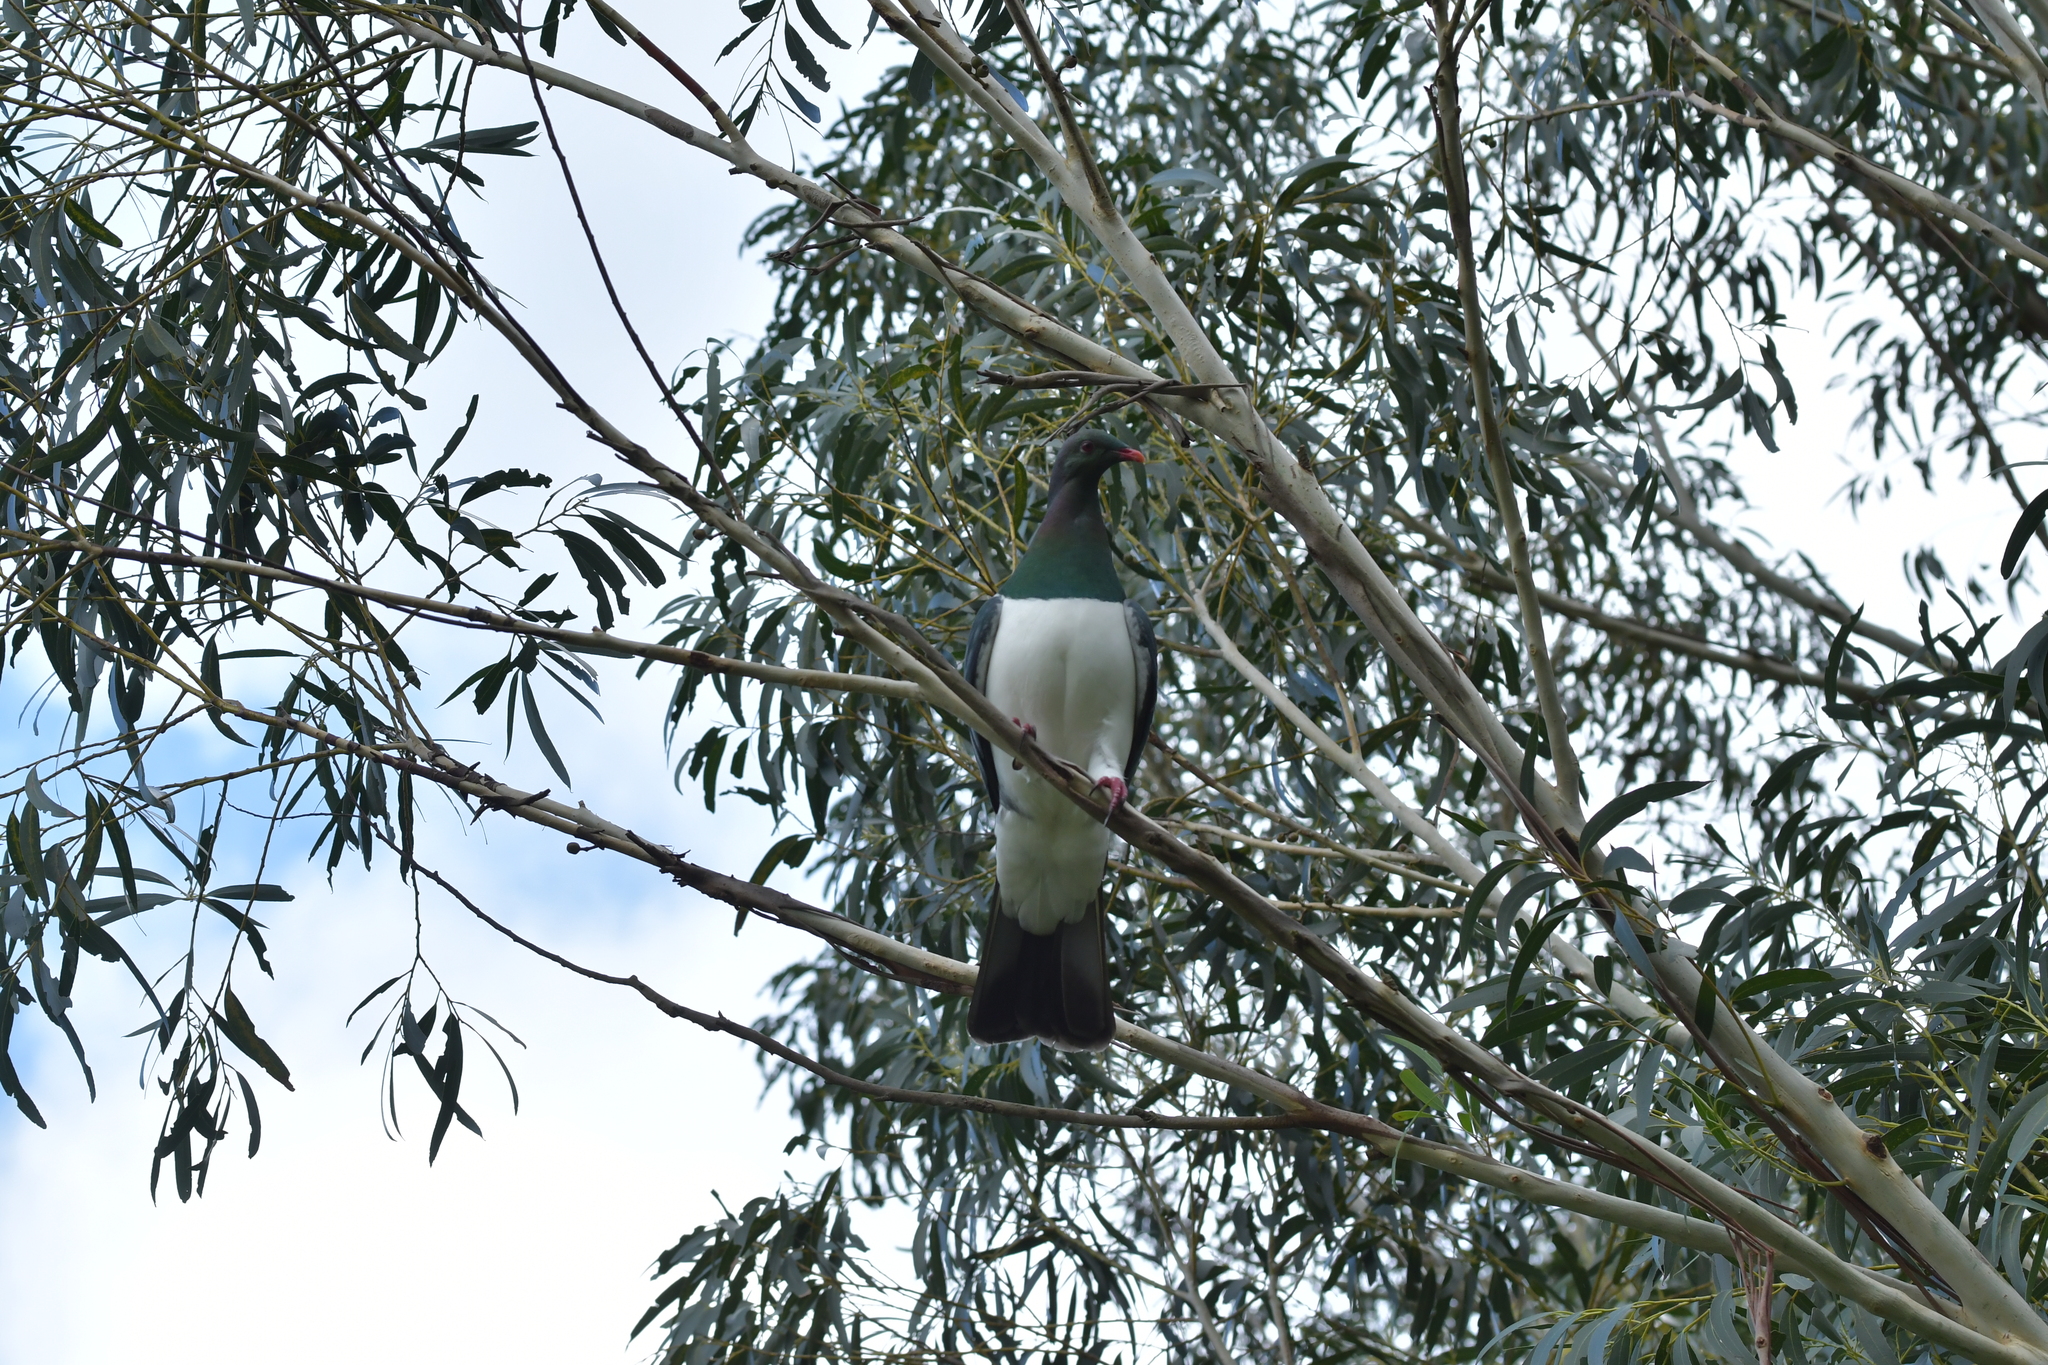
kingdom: Animalia
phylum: Chordata
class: Aves
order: Columbiformes
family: Columbidae
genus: Hemiphaga
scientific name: Hemiphaga novaeseelandiae
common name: New zealand pigeon
